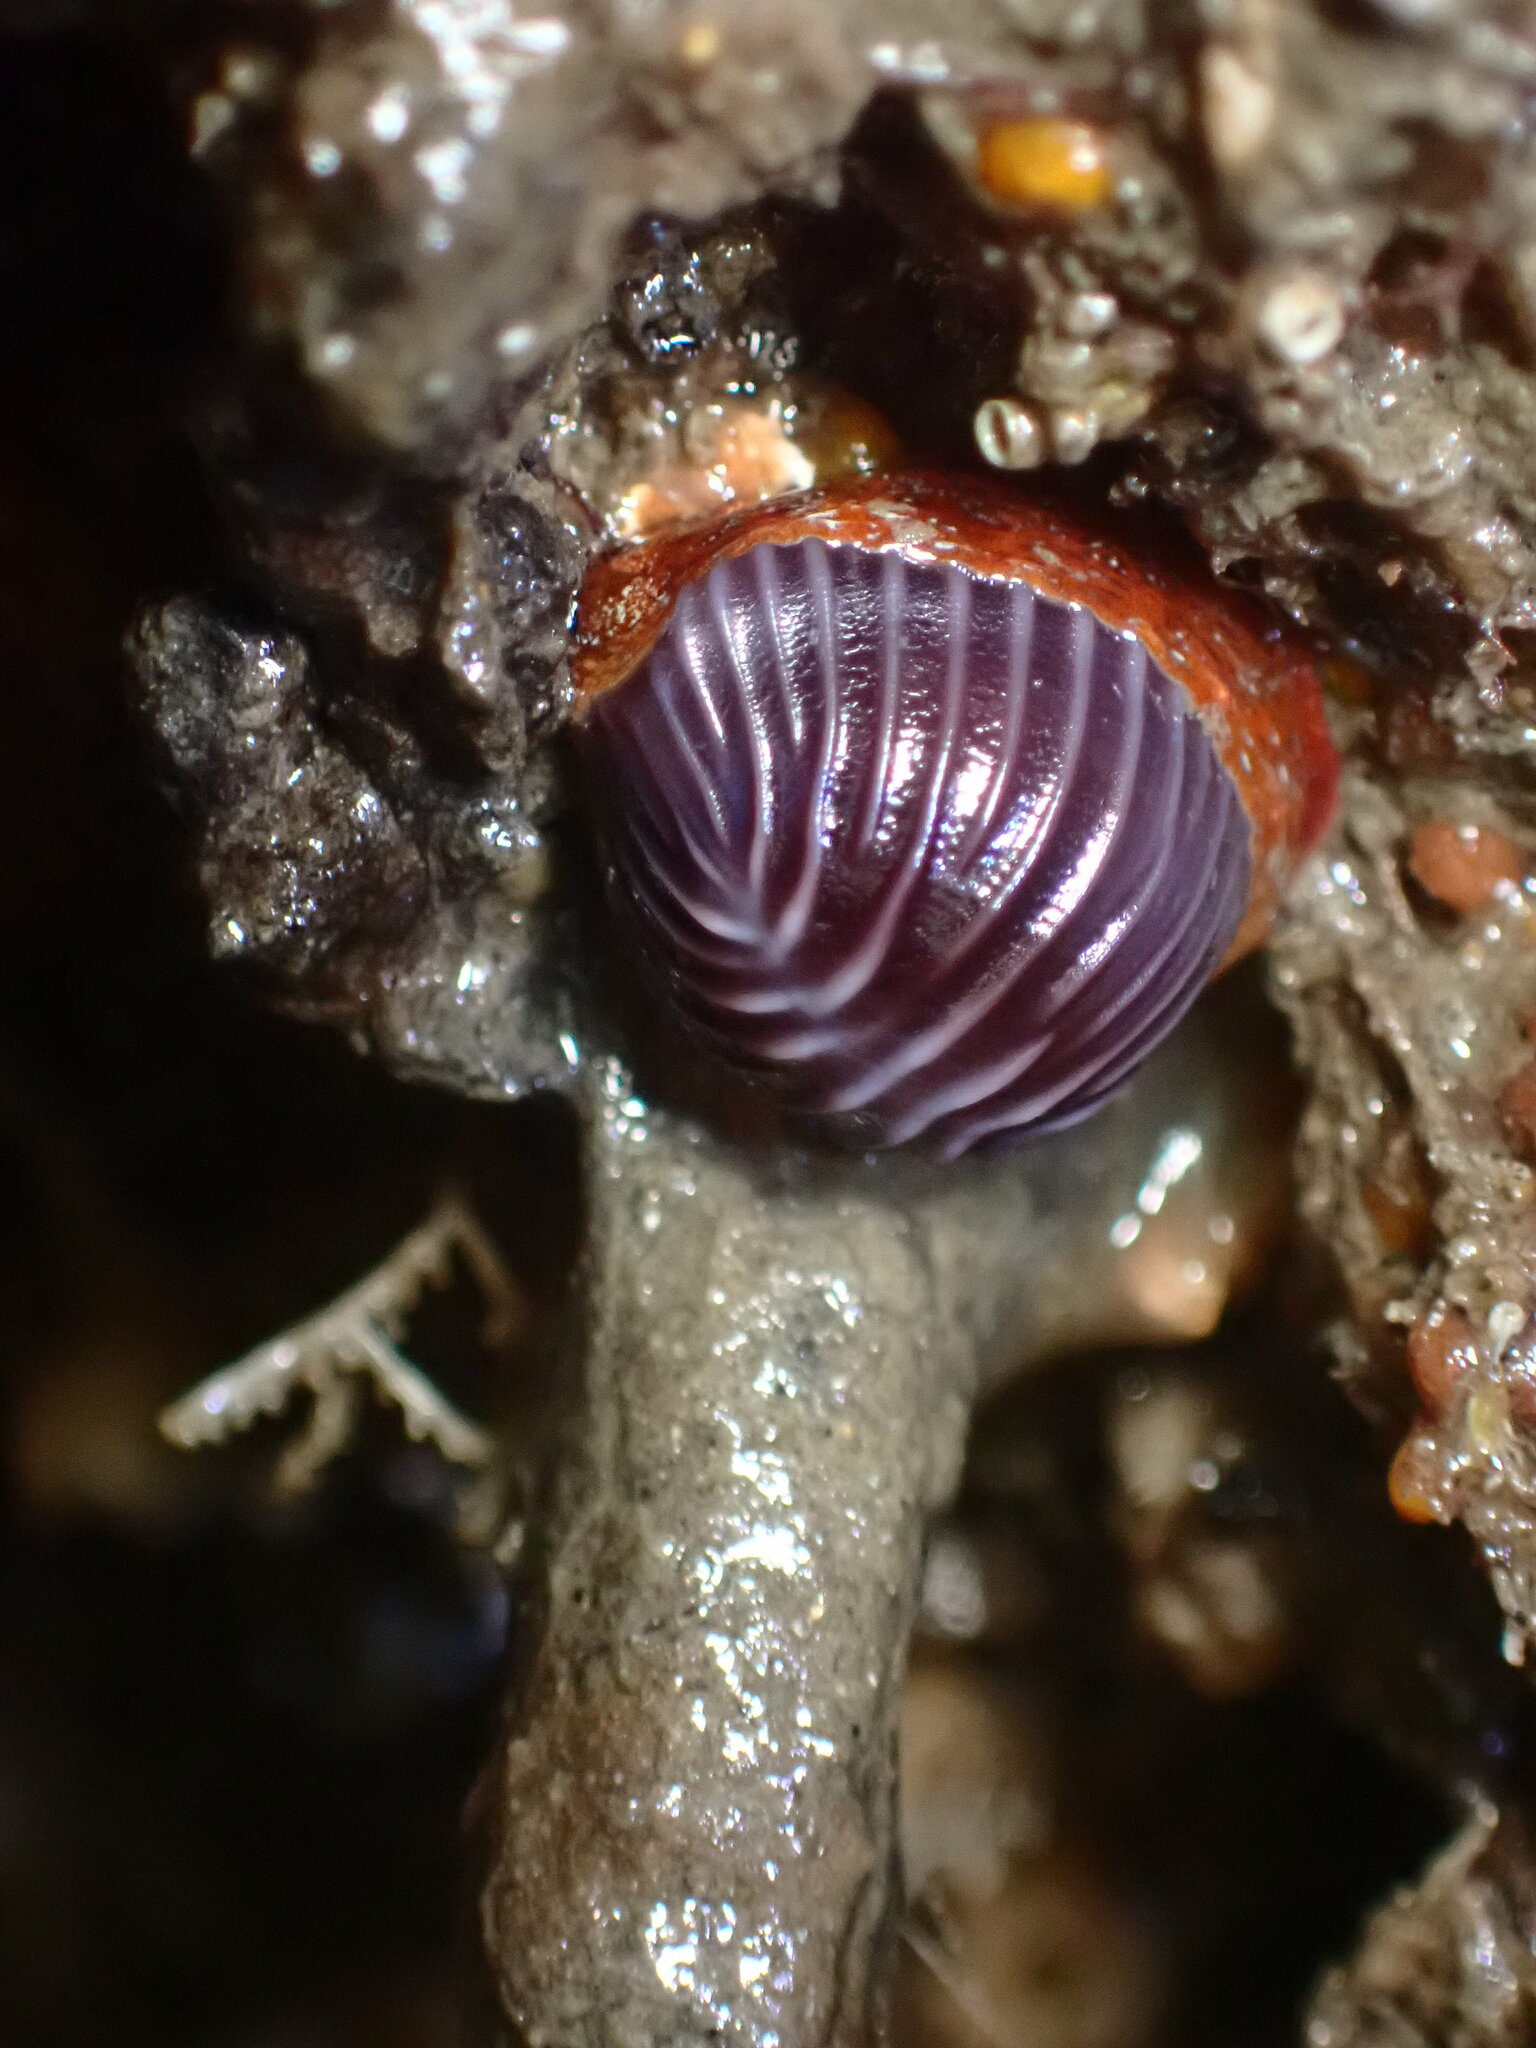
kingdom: Animalia
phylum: Mollusca
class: Gastropoda
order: Littorinimorpha
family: Triviidae
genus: Pseudopusula
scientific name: Pseudopusula californiana
